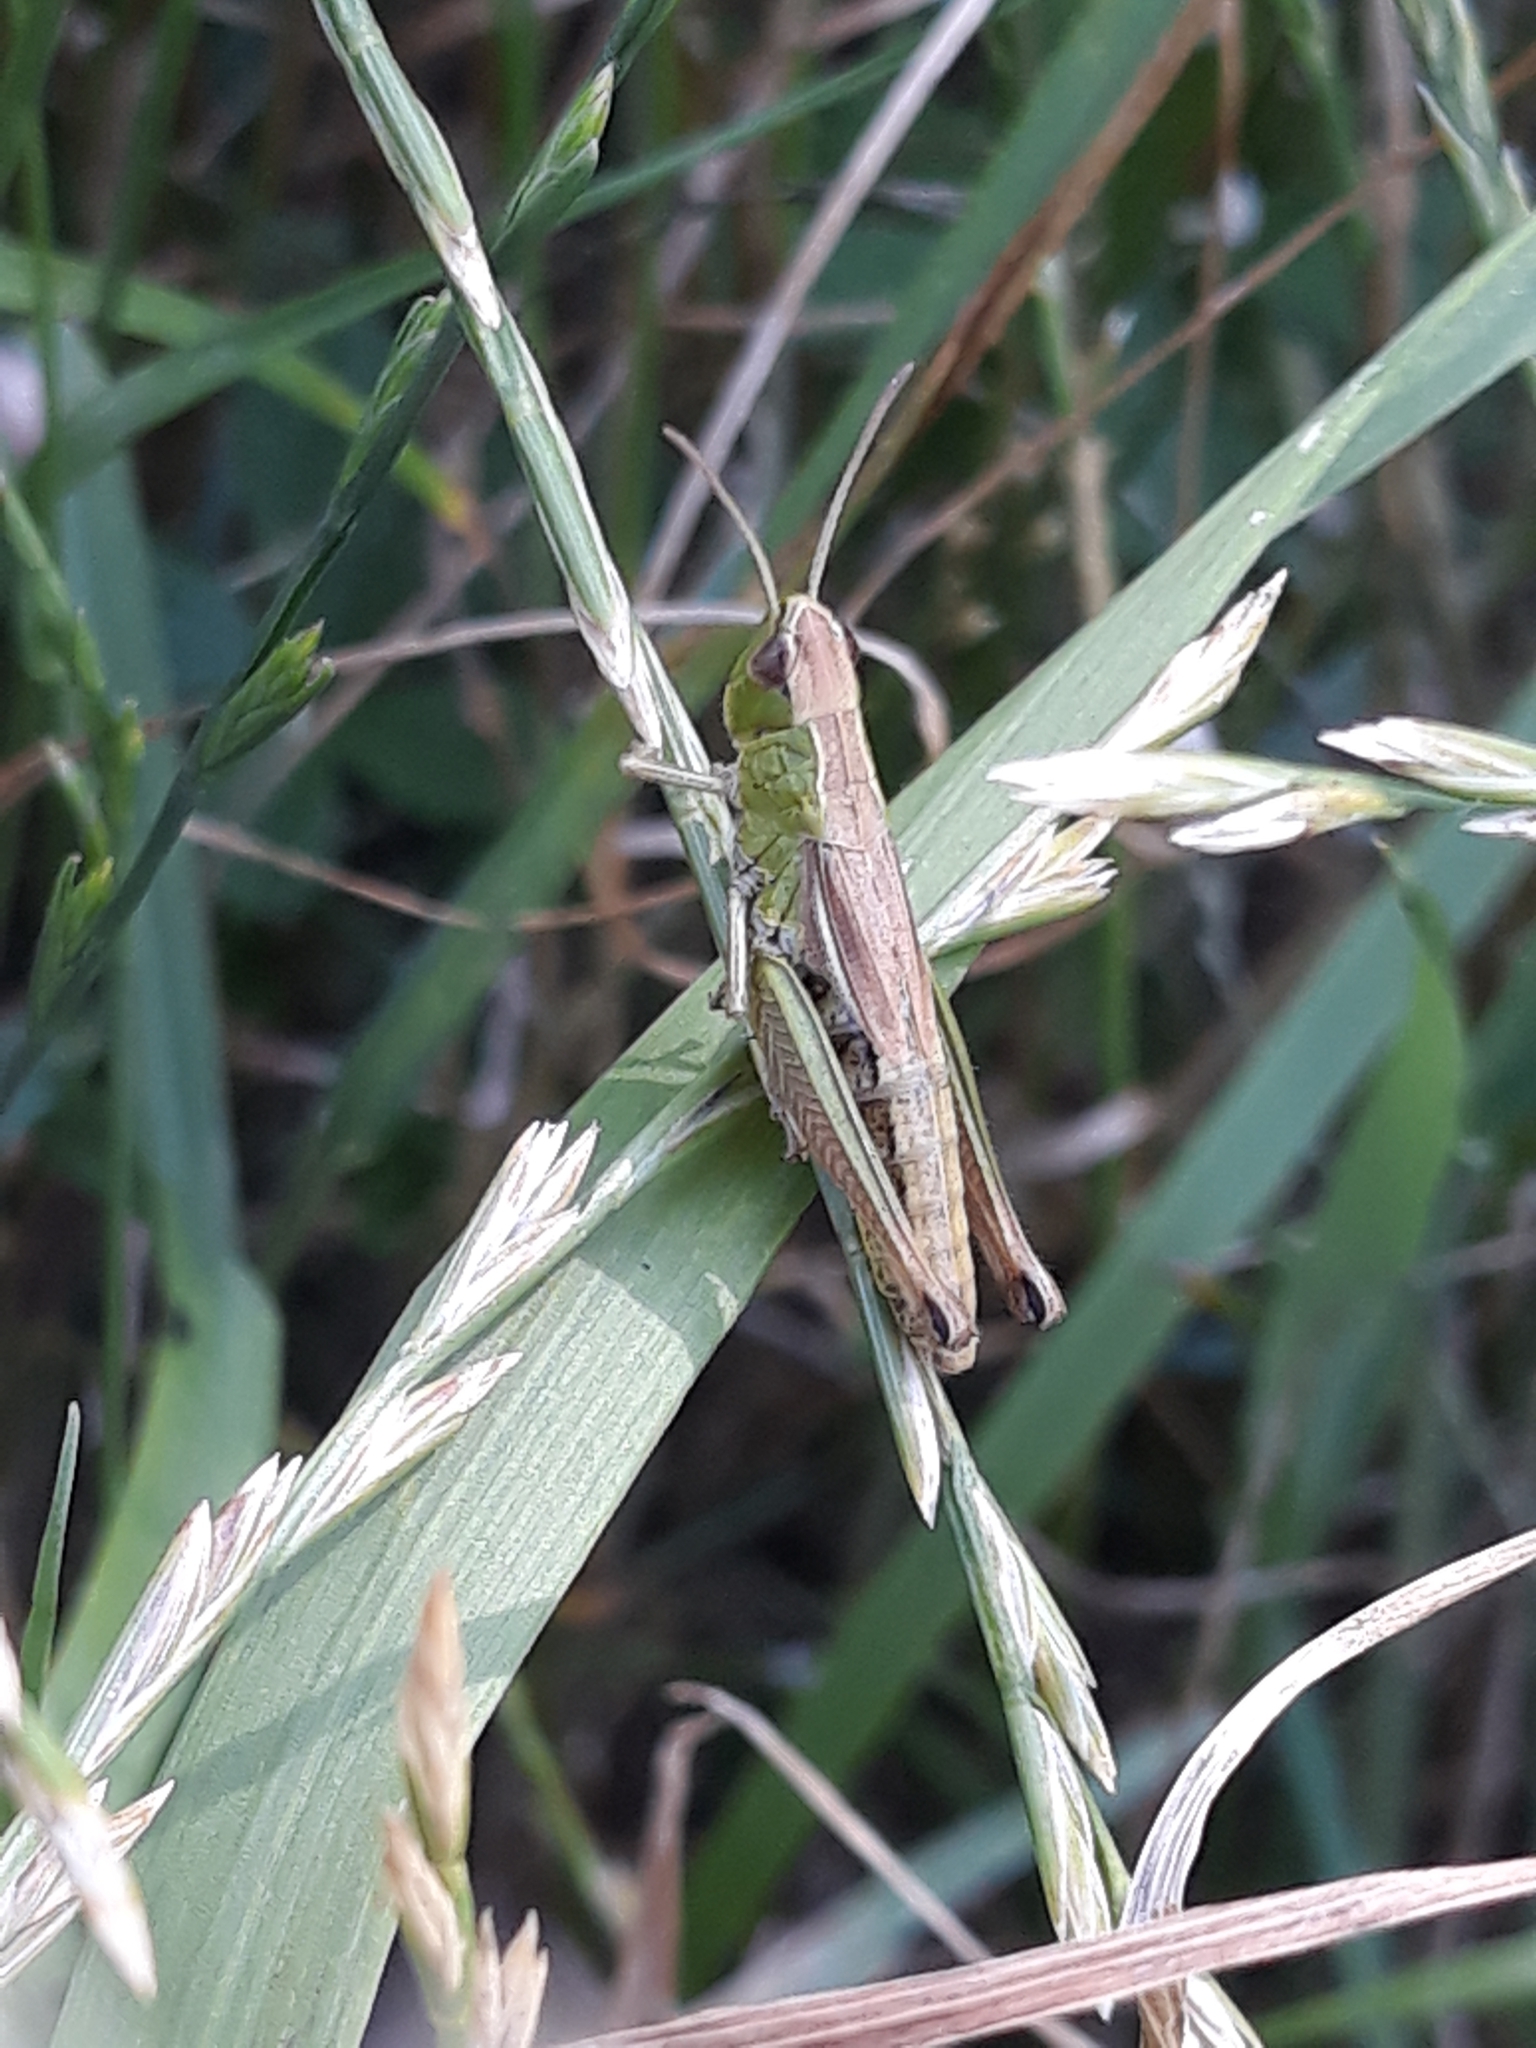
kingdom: Animalia
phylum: Arthropoda
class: Insecta
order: Orthoptera
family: Acrididae
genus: Pseudochorthippus
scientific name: Pseudochorthippus parallelus
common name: Meadow grasshopper
